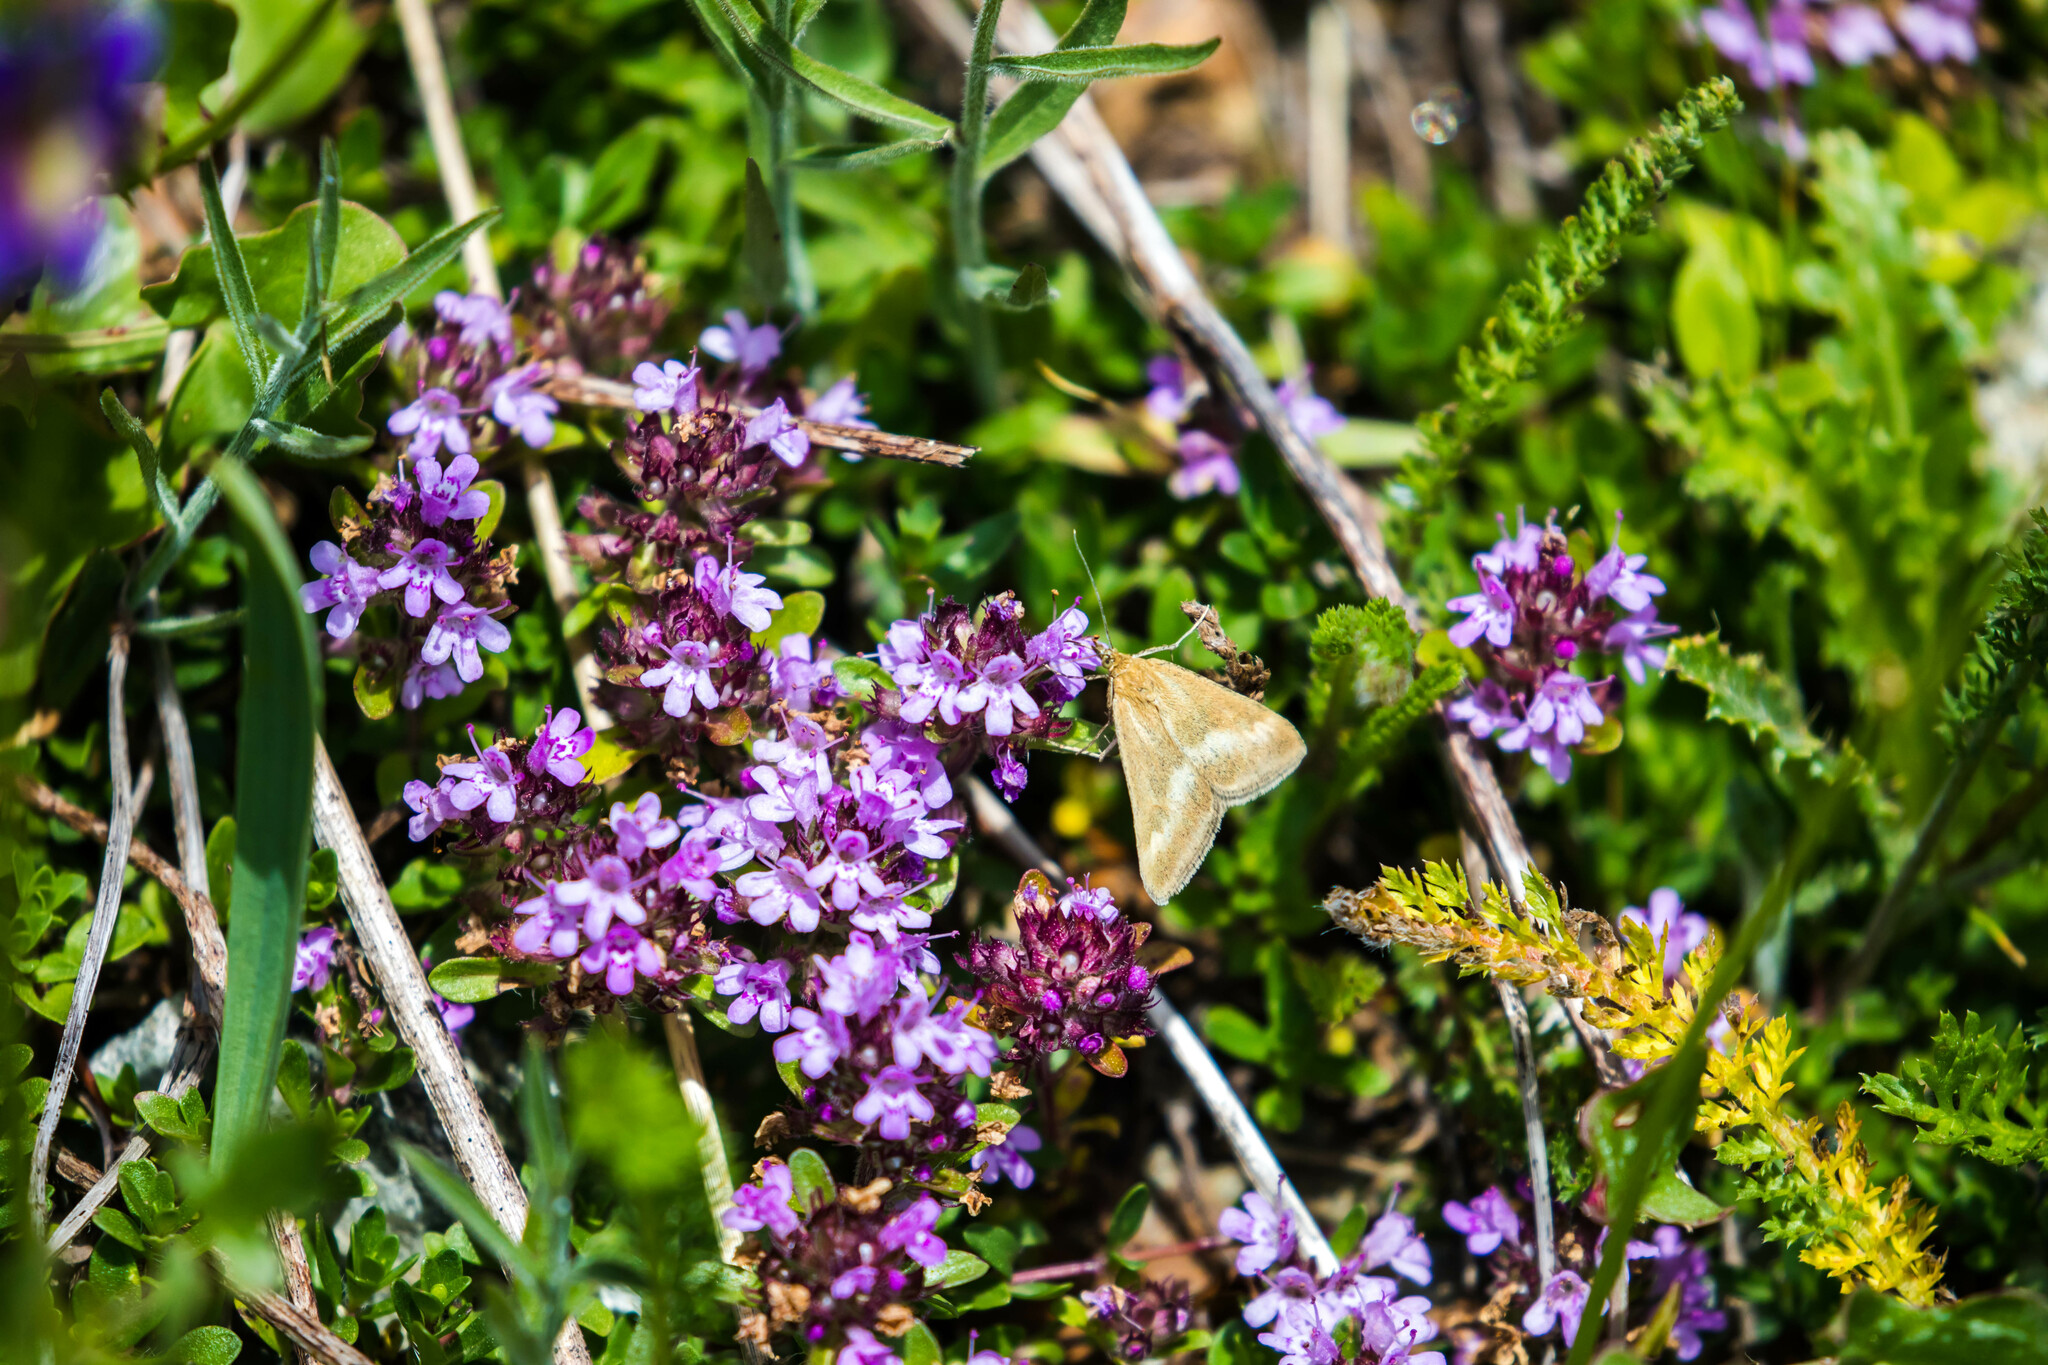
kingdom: Animalia
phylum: Arthropoda
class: Insecta
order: Lepidoptera
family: Crambidae
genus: Pyrausta
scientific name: Pyrausta aerealis
